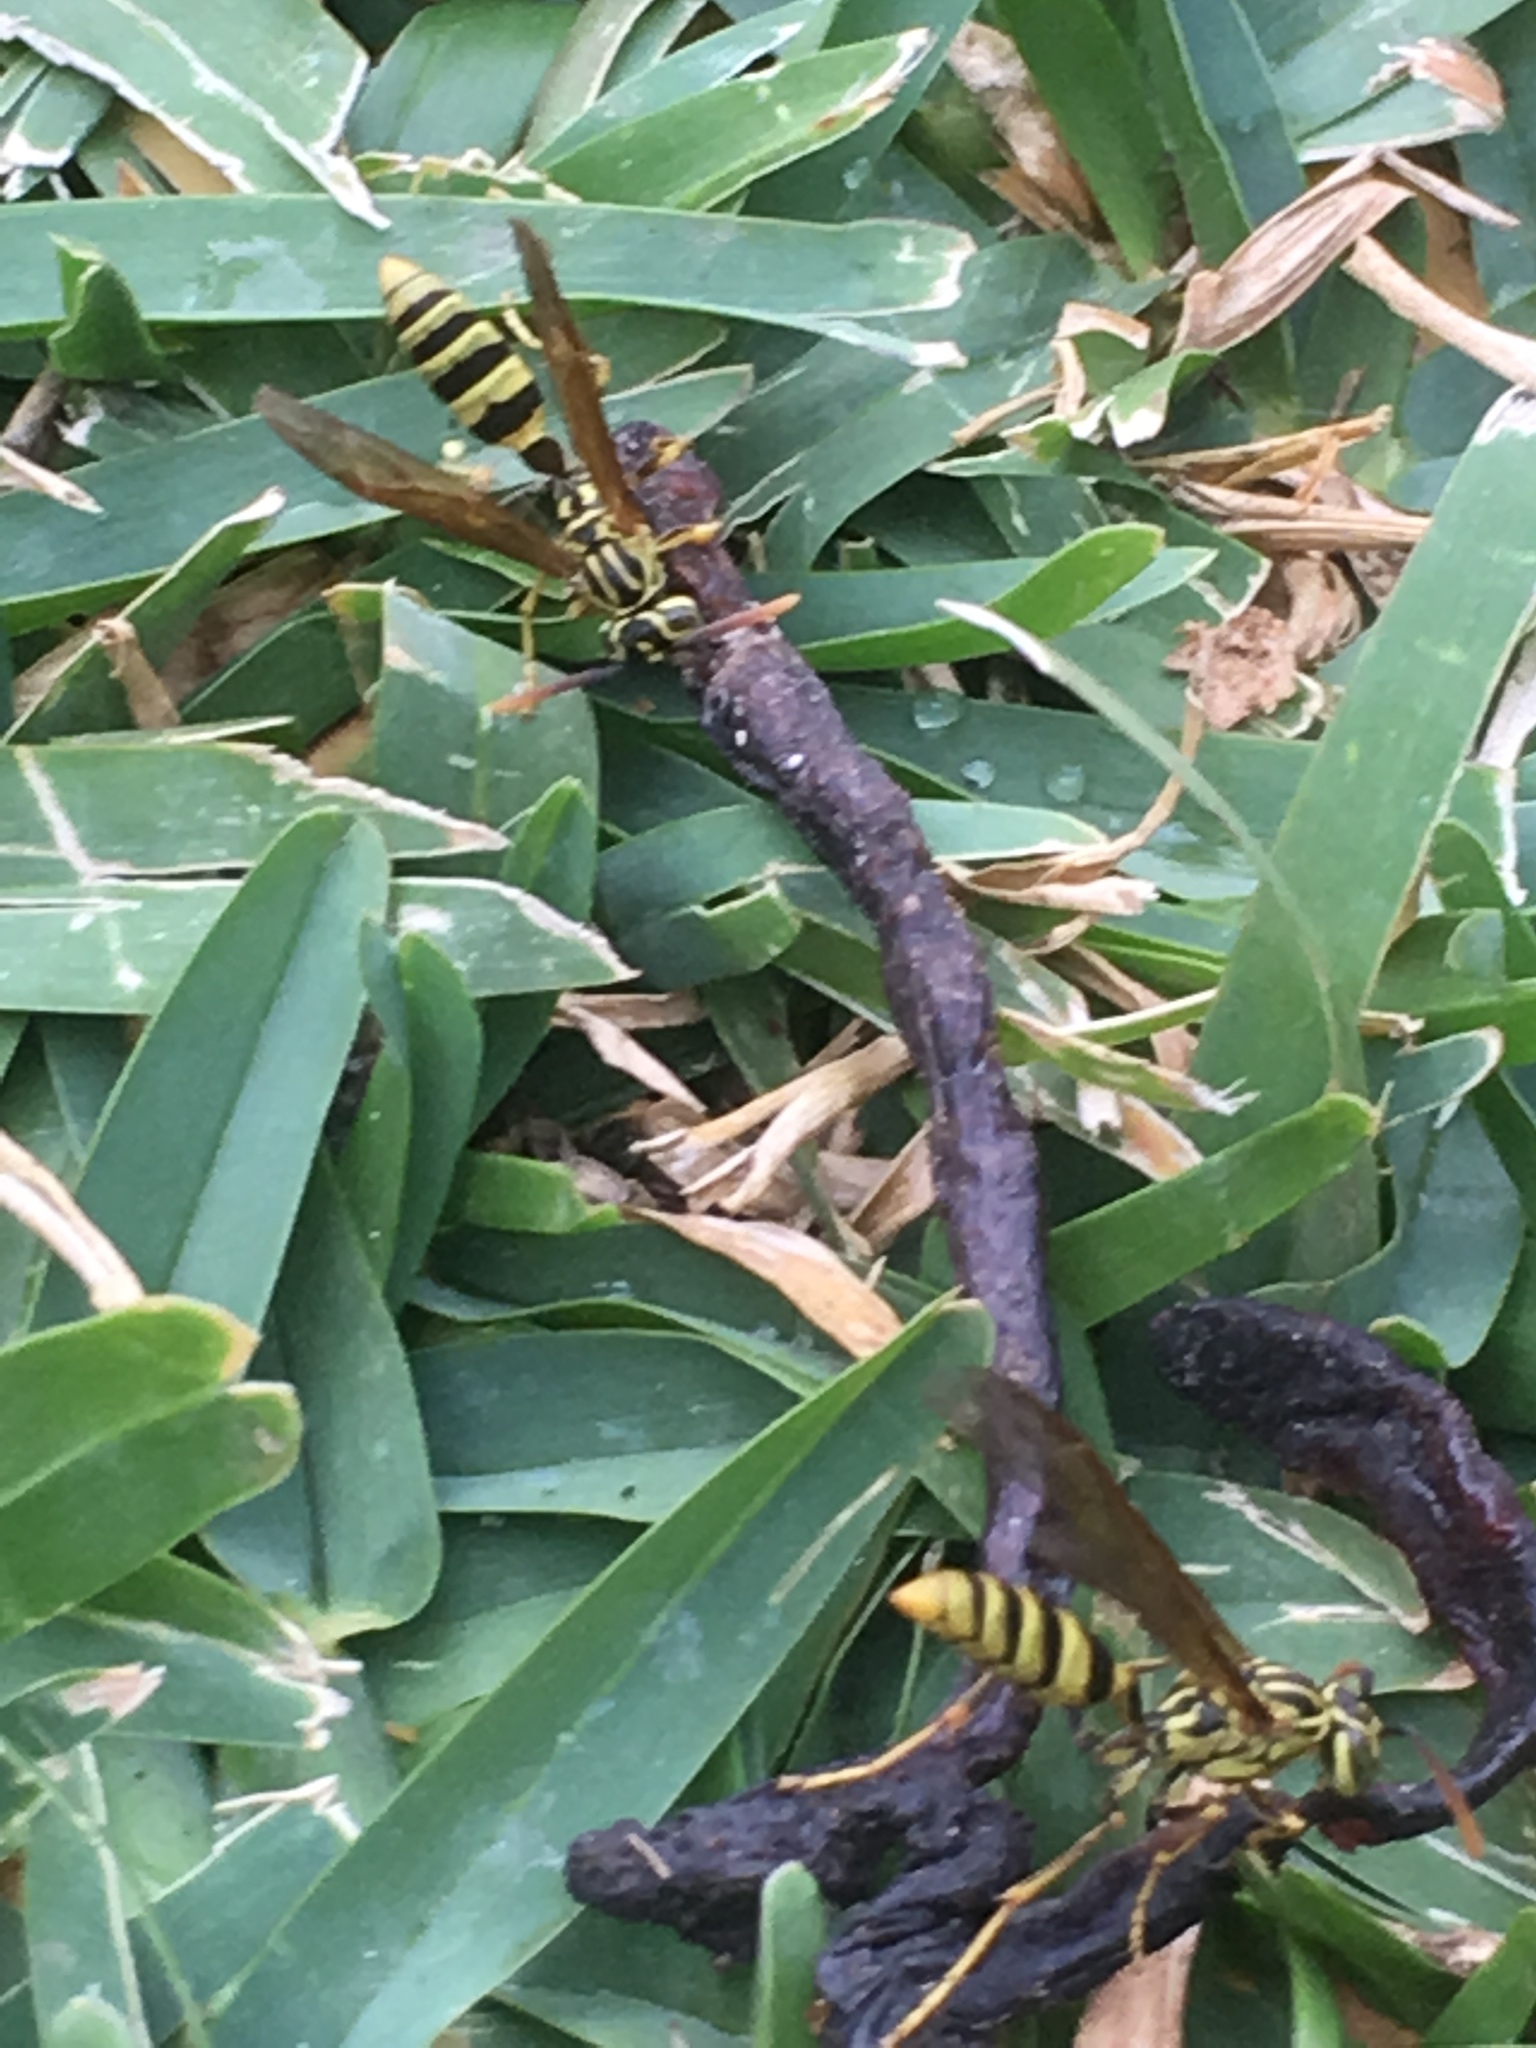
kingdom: Animalia
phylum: Arthropoda
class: Insecta
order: Hymenoptera
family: Vespidae
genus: Agelaia
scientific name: Agelaia areata
